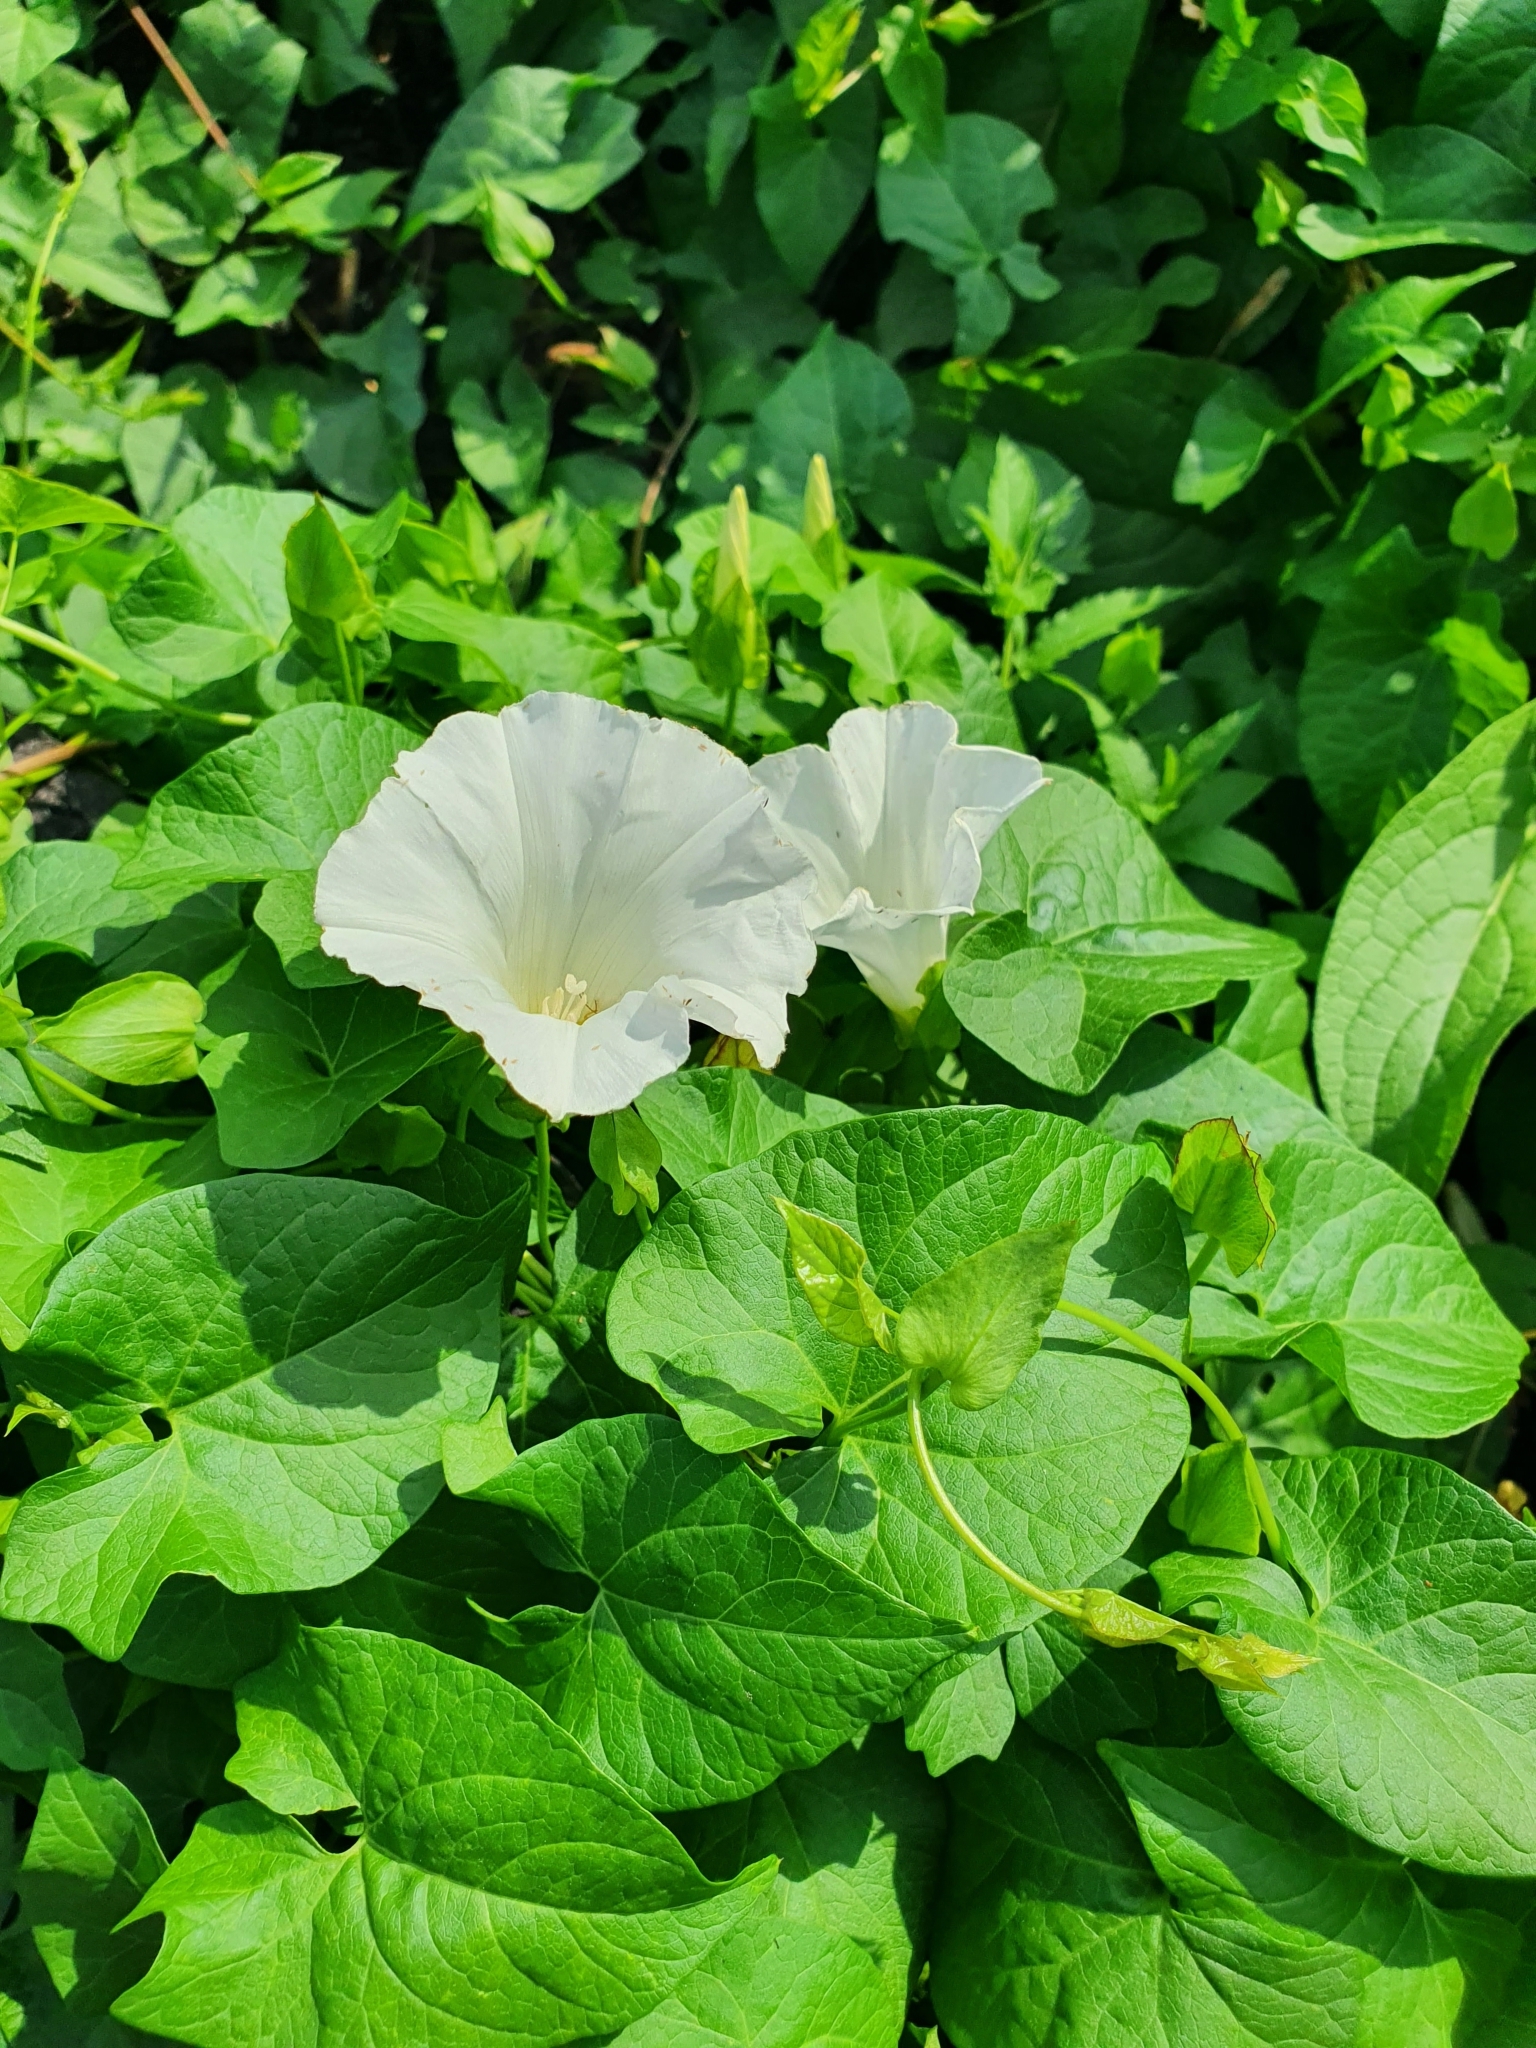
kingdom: Plantae
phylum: Tracheophyta
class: Magnoliopsida
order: Solanales
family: Convolvulaceae
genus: Calystegia
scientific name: Calystegia sepium
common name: Hedge bindweed
